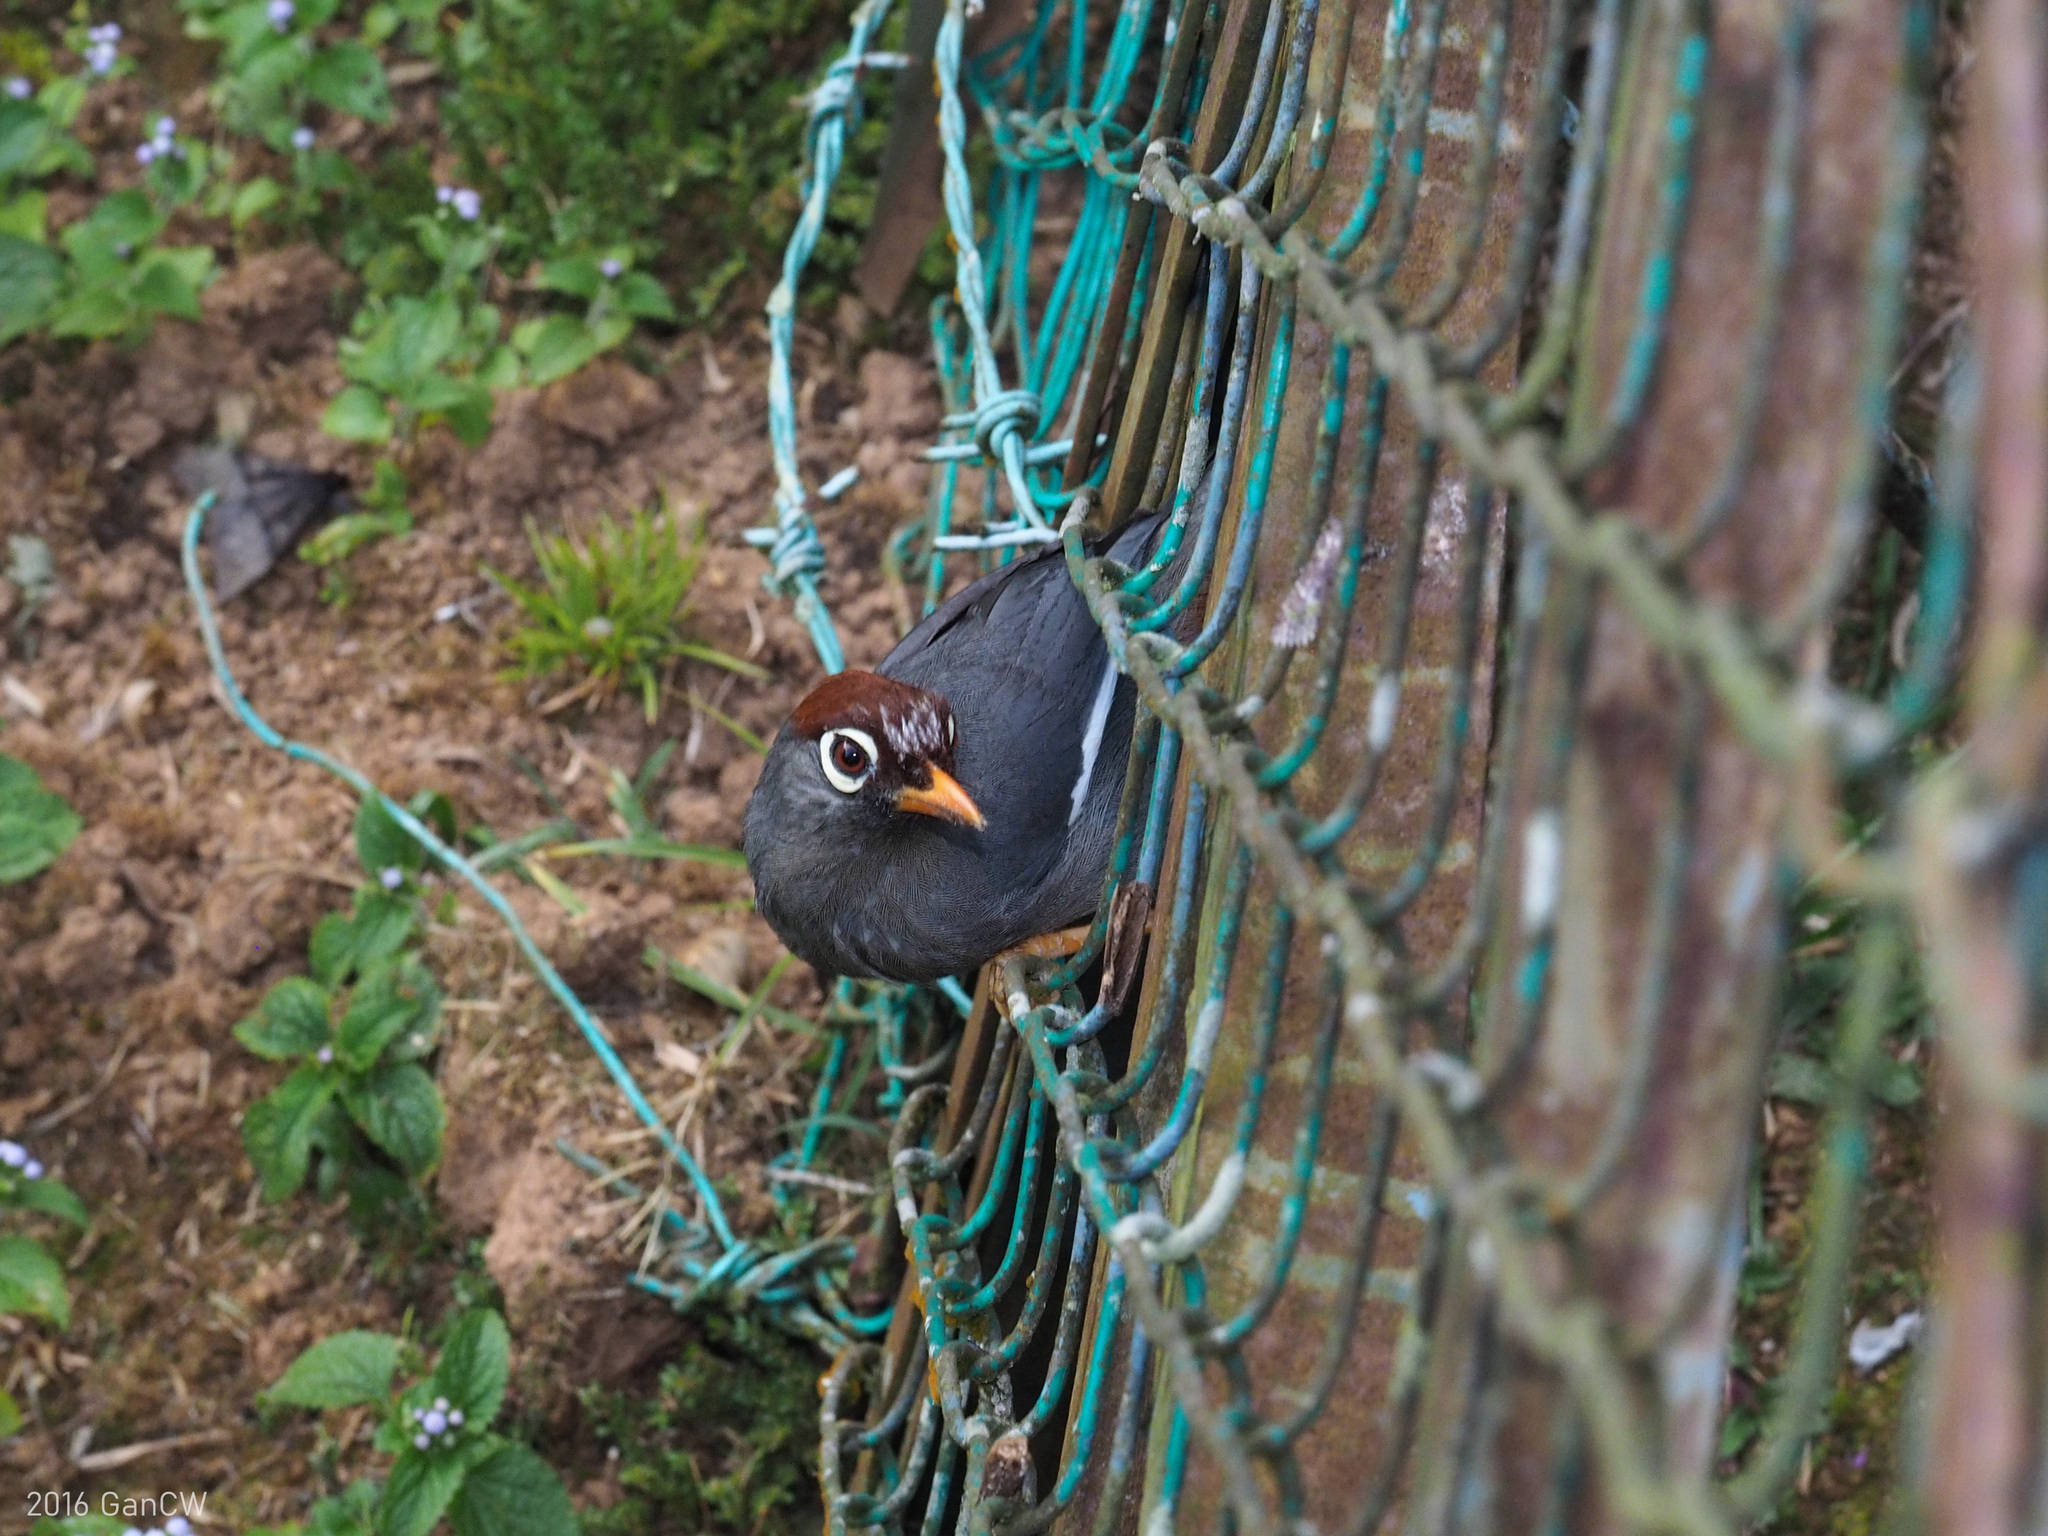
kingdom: Animalia
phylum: Chordata
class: Aves
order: Passeriformes
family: Leiothrichidae
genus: Garrulax
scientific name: Garrulax mitratus
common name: Chestnut-capped laughingthrush
